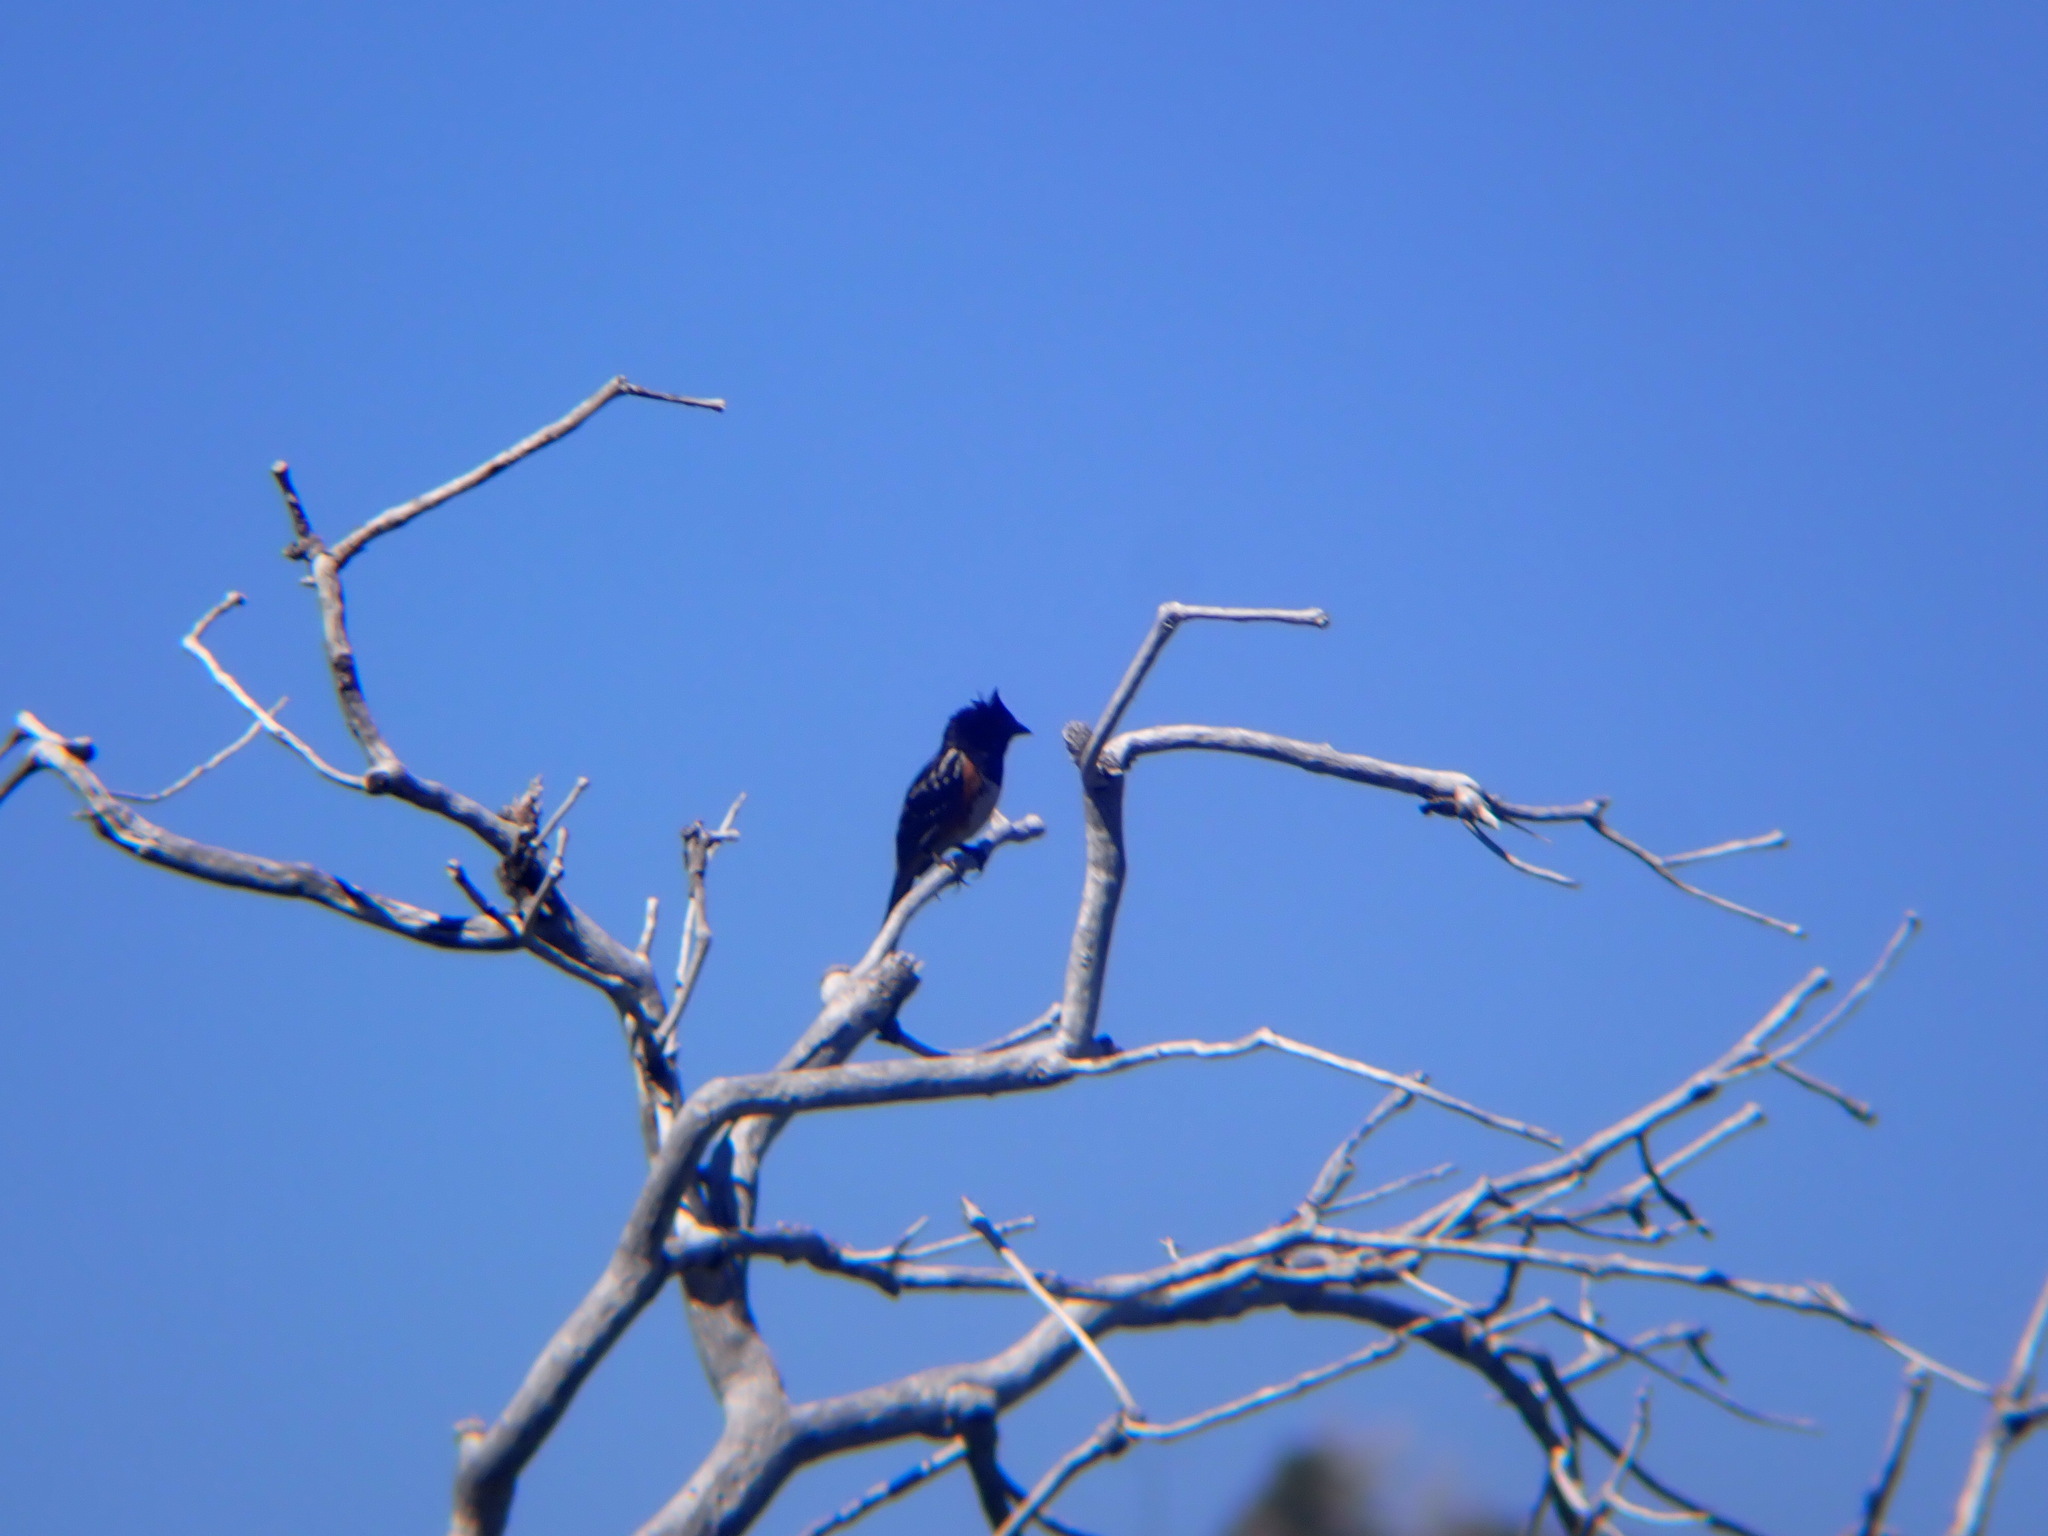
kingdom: Animalia
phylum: Chordata
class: Aves
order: Passeriformes
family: Passerellidae
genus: Pipilo
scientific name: Pipilo maculatus
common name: Spotted towhee
